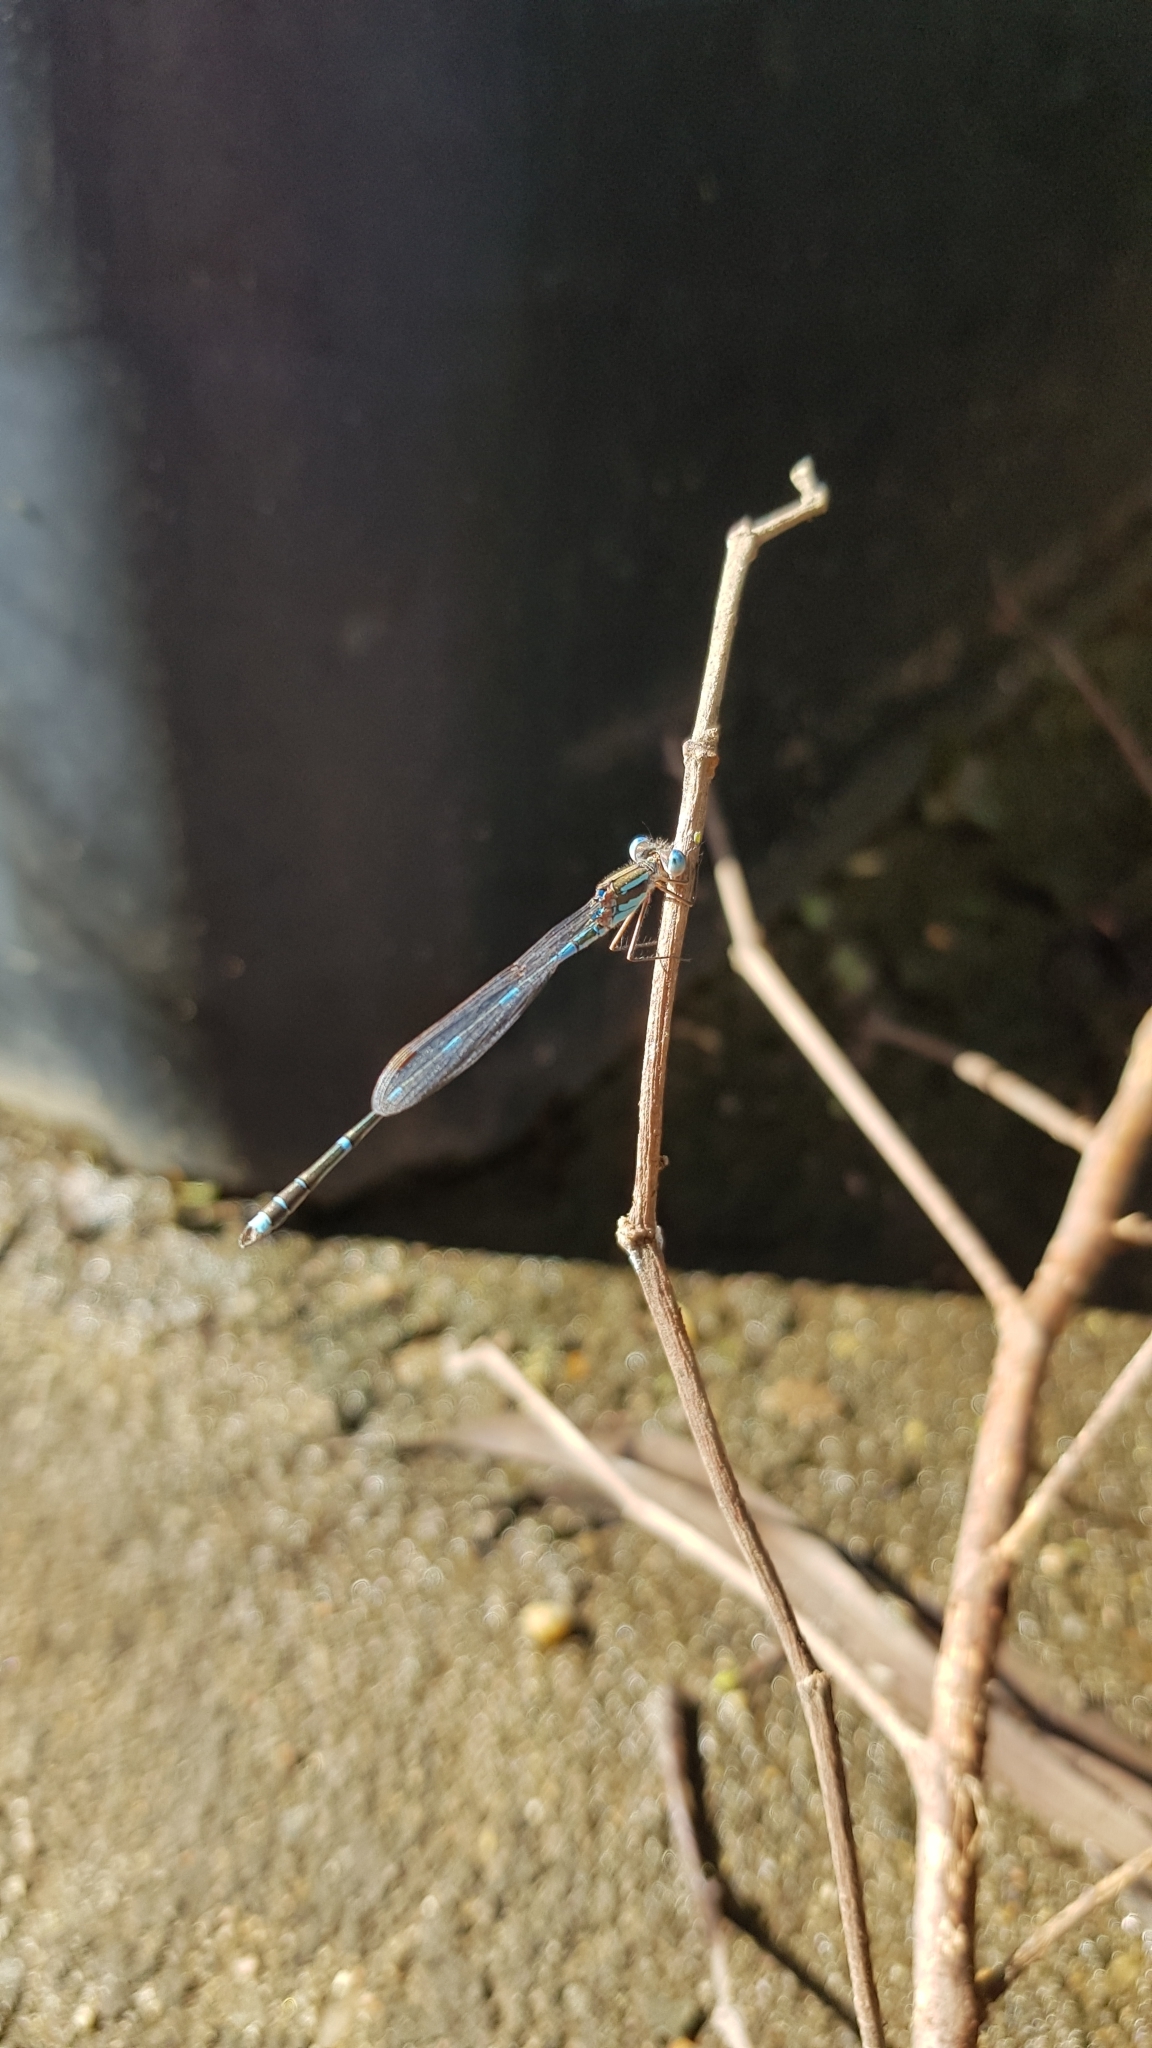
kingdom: Animalia
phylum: Arthropoda
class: Insecta
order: Odonata
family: Lestidae
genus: Austrolestes
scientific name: Austrolestes leda
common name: Wandering ringtail
